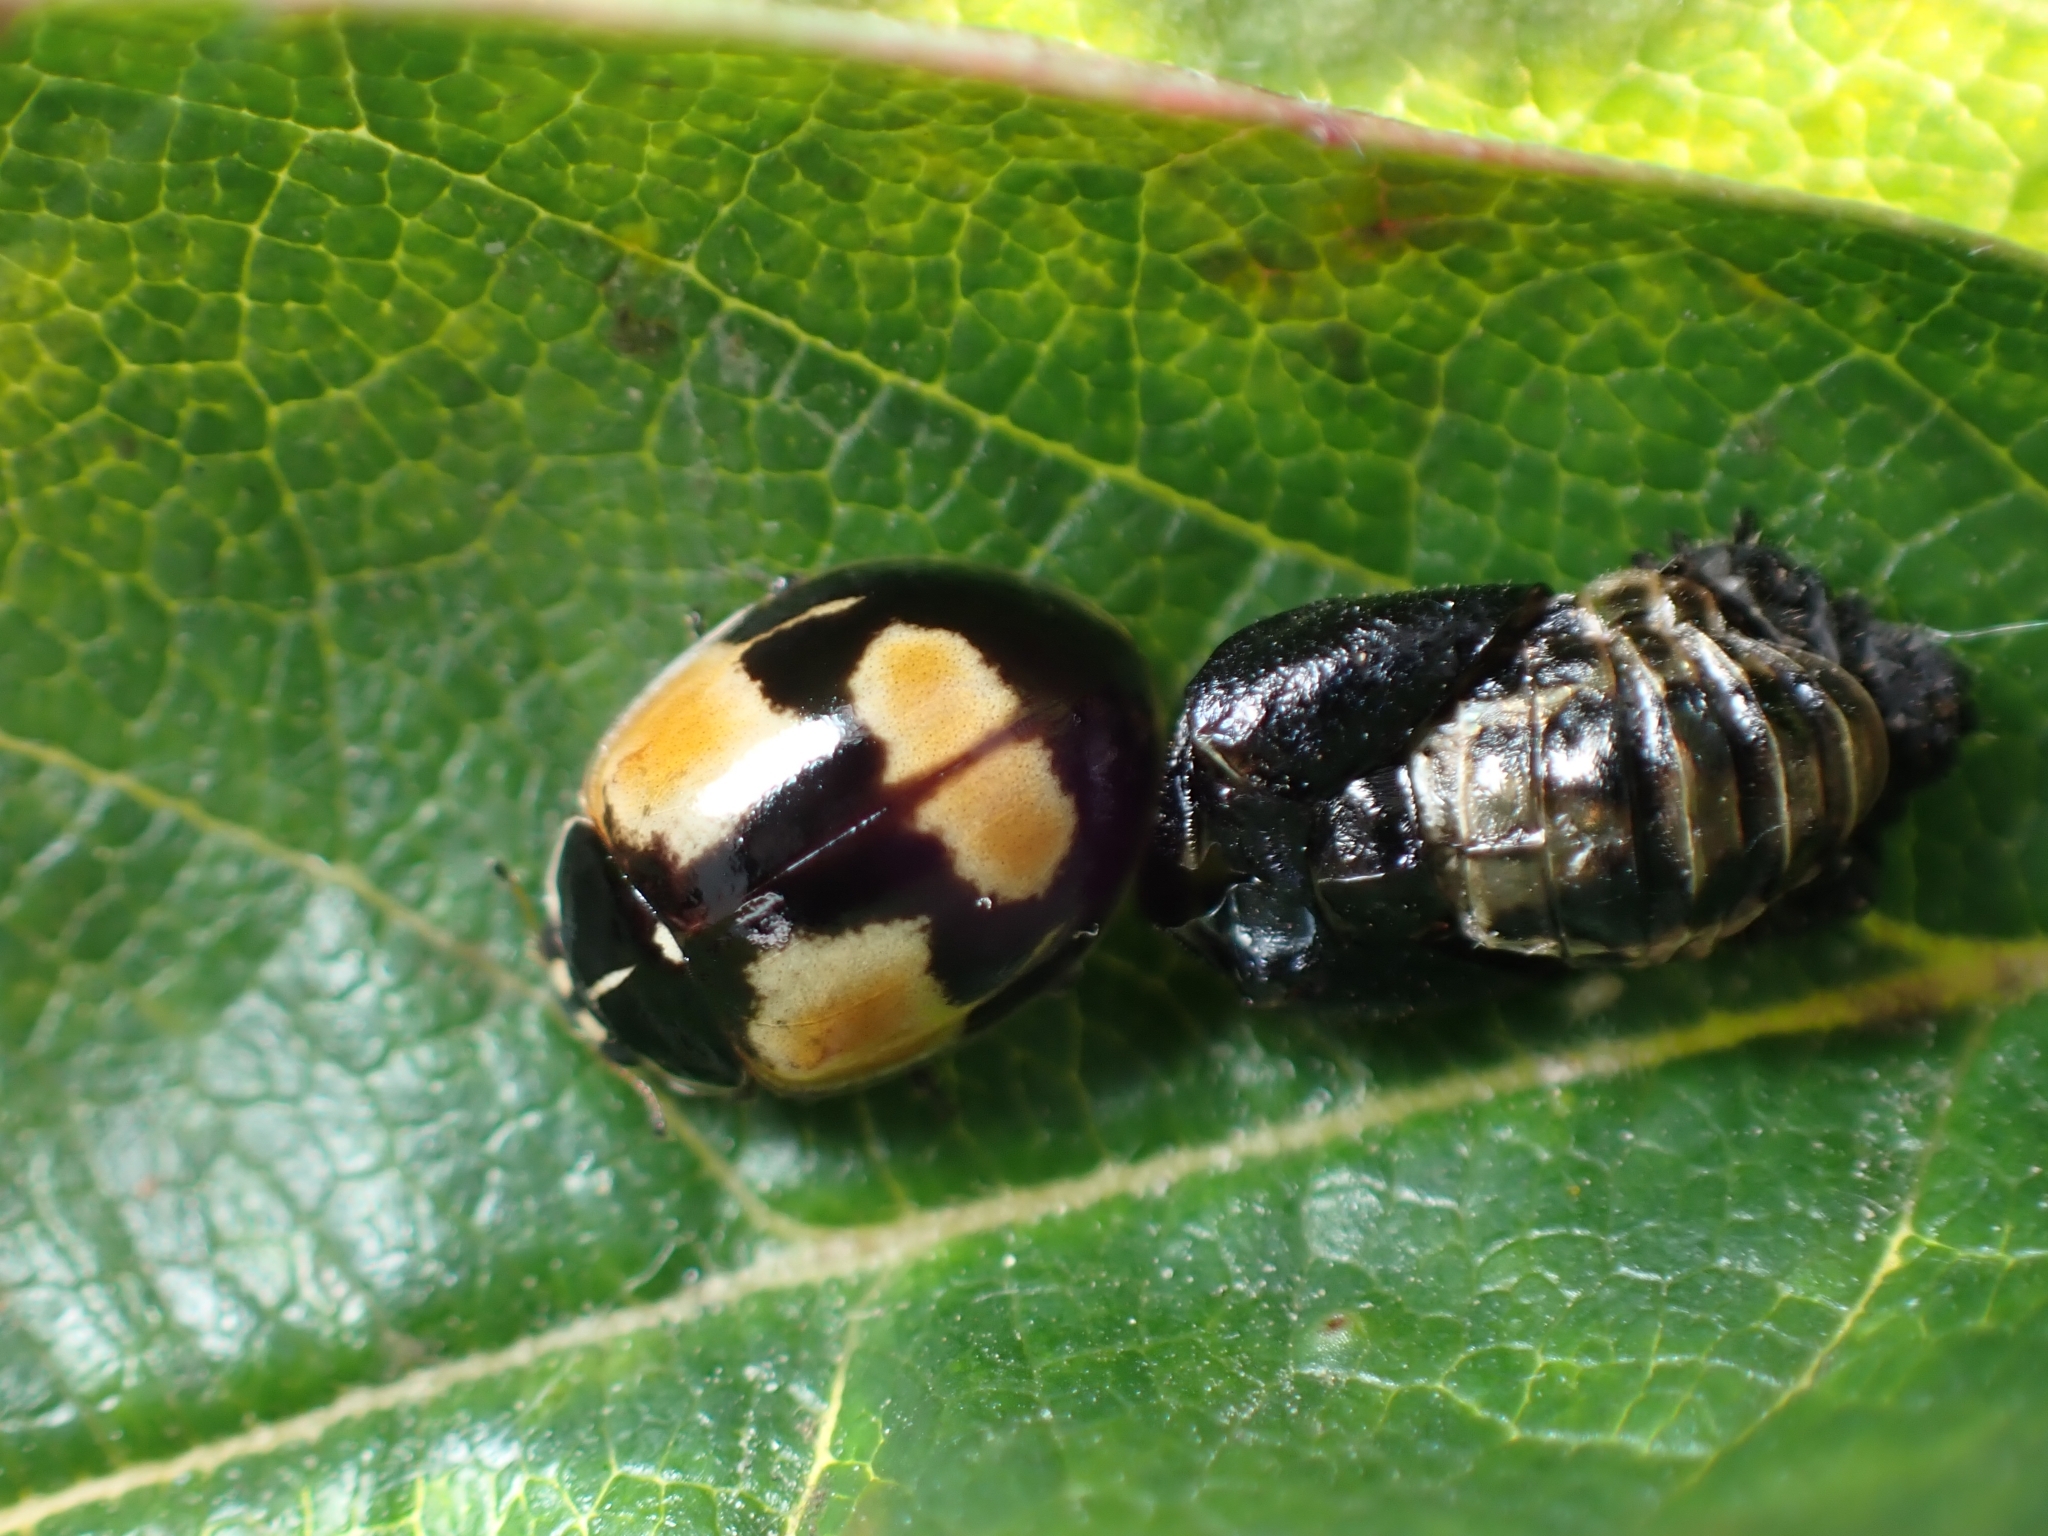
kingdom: Animalia
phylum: Arthropoda
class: Insecta
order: Coleoptera
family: Coccinellidae
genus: Adalia
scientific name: Adalia bipunctata
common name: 2-spot ladybird
